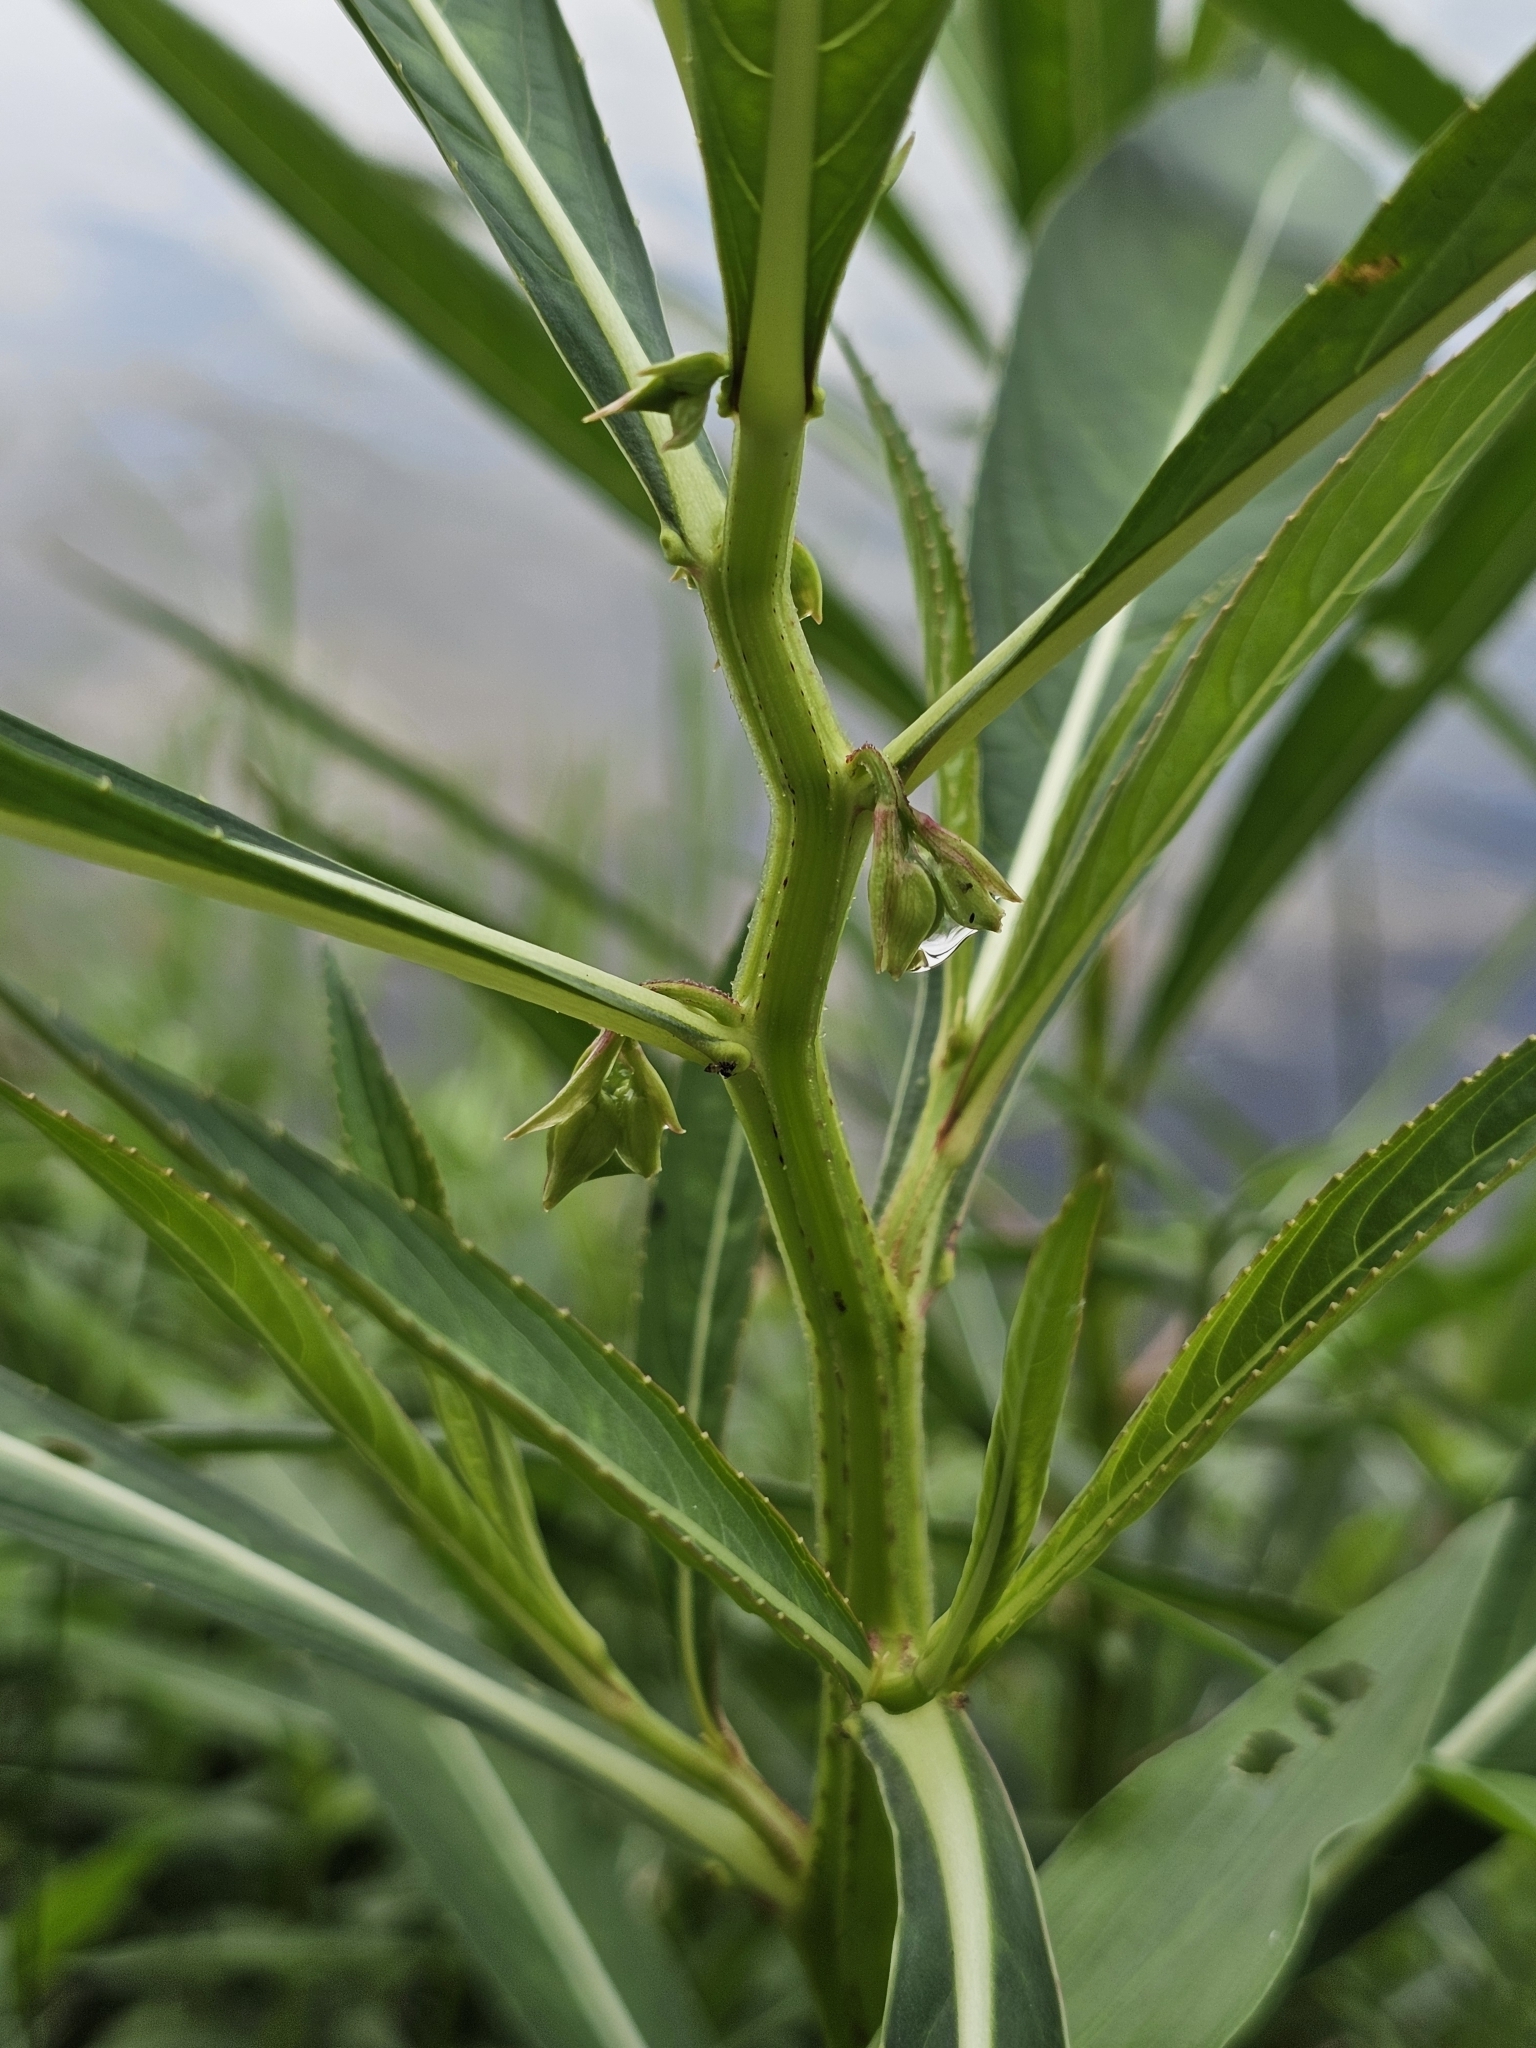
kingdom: Plantae
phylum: Tracheophyta
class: Magnoliopsida
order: Ericales
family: Balsaminaceae
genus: Hydrocera
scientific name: Hydrocera triflora
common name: Marsh henna
